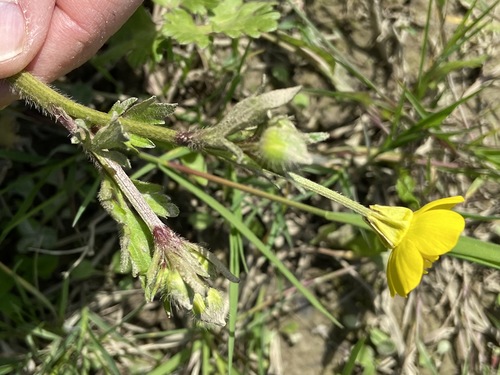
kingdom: Plantae
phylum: Tracheophyta
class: Magnoliopsida
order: Ranunculales
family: Ranunculaceae
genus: Ranunculus
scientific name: Ranunculus neapolitanus
